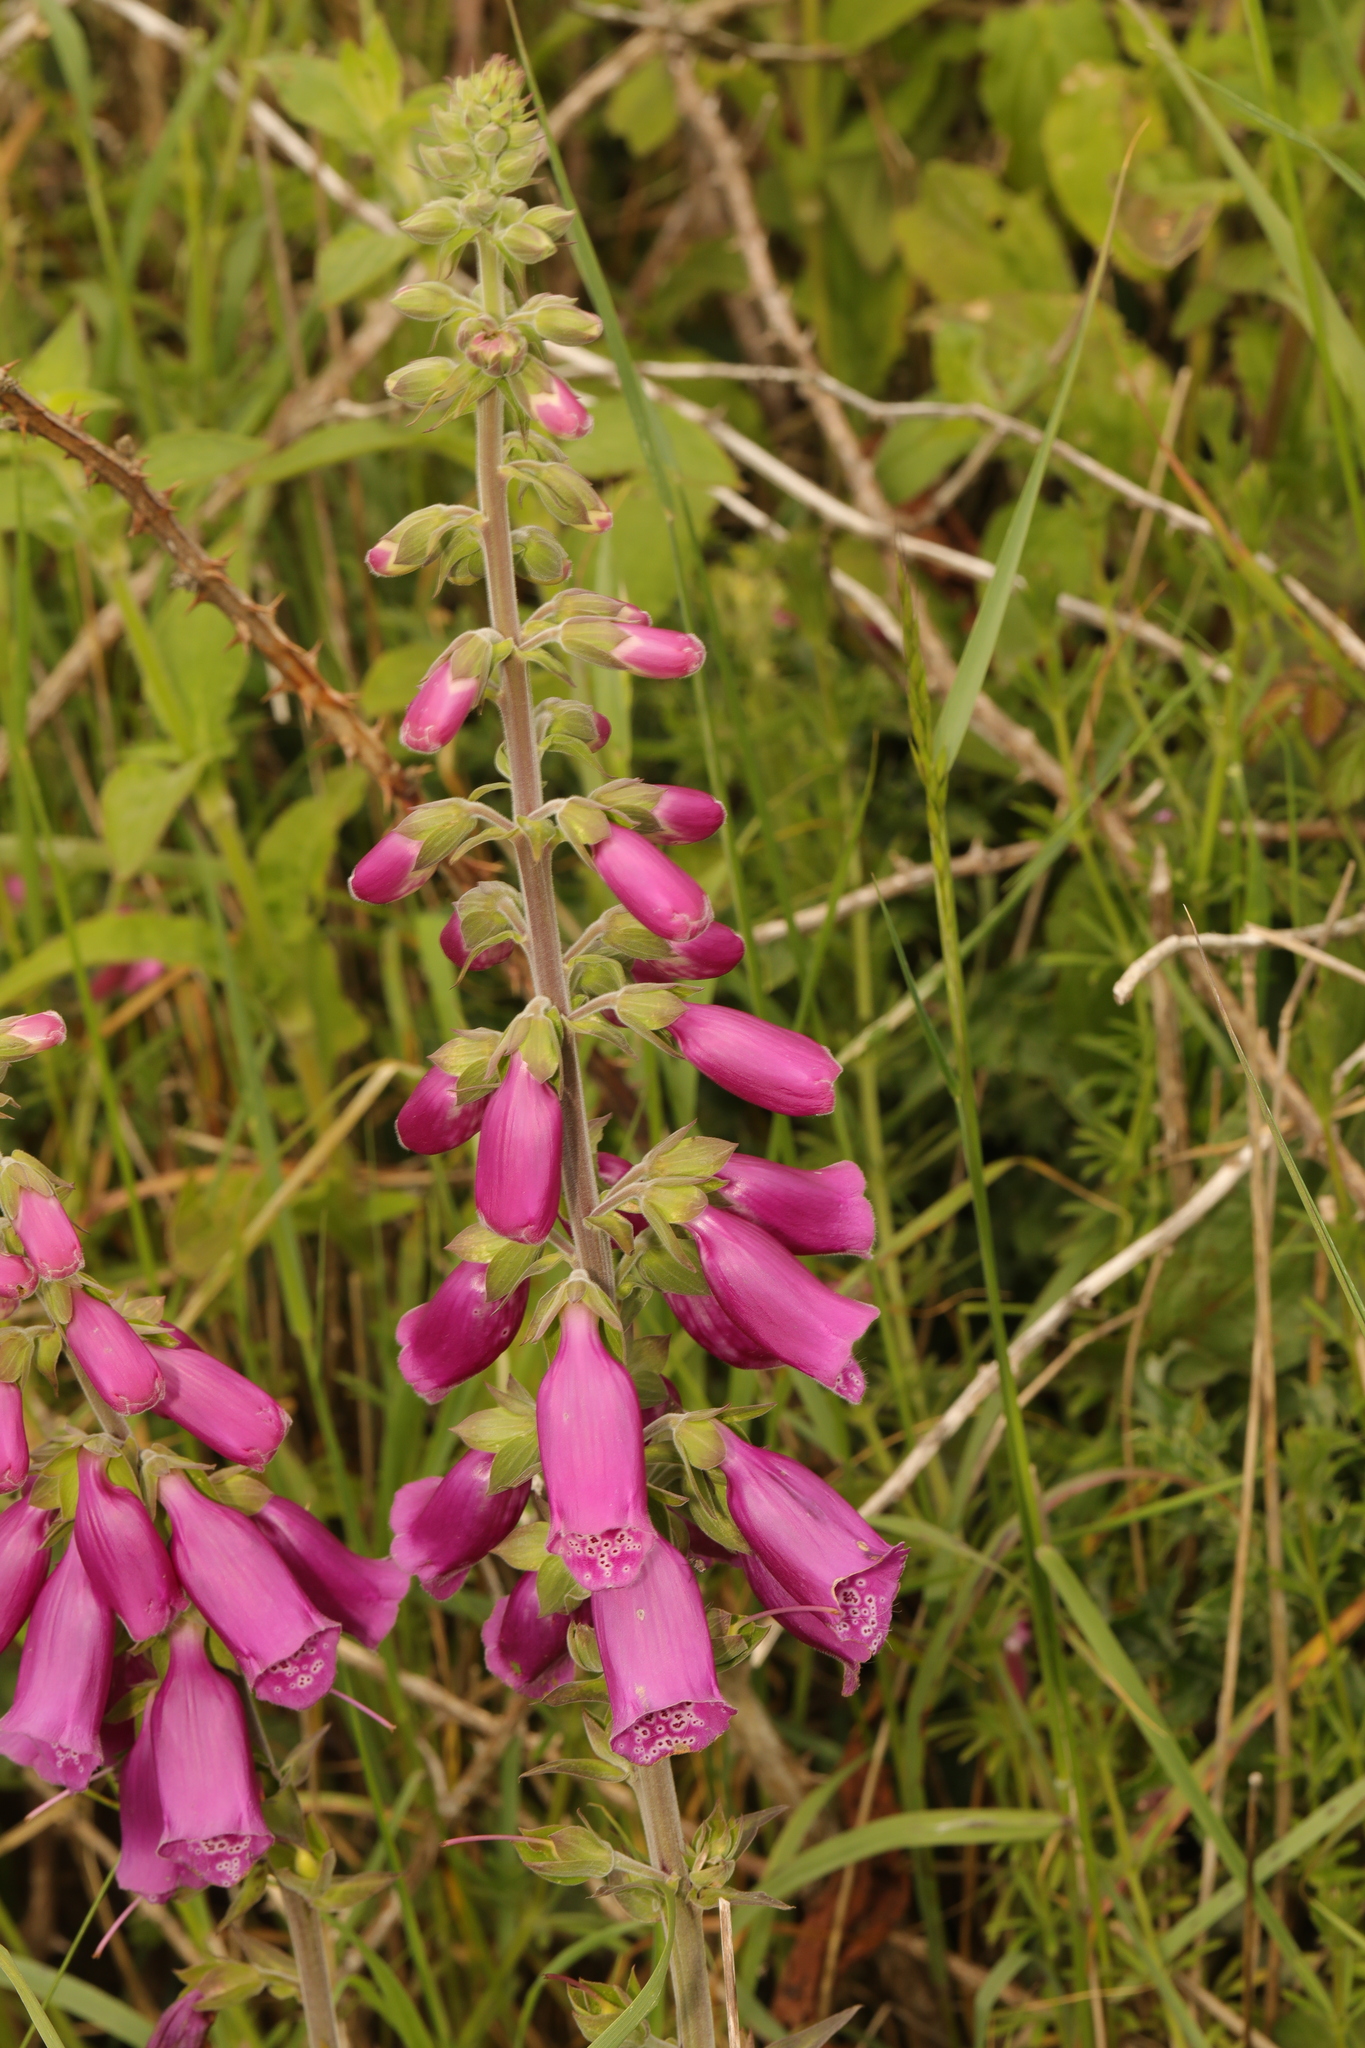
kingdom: Plantae
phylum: Tracheophyta
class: Magnoliopsida
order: Lamiales
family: Plantaginaceae
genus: Digitalis
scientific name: Digitalis purpurea
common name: Foxglove
